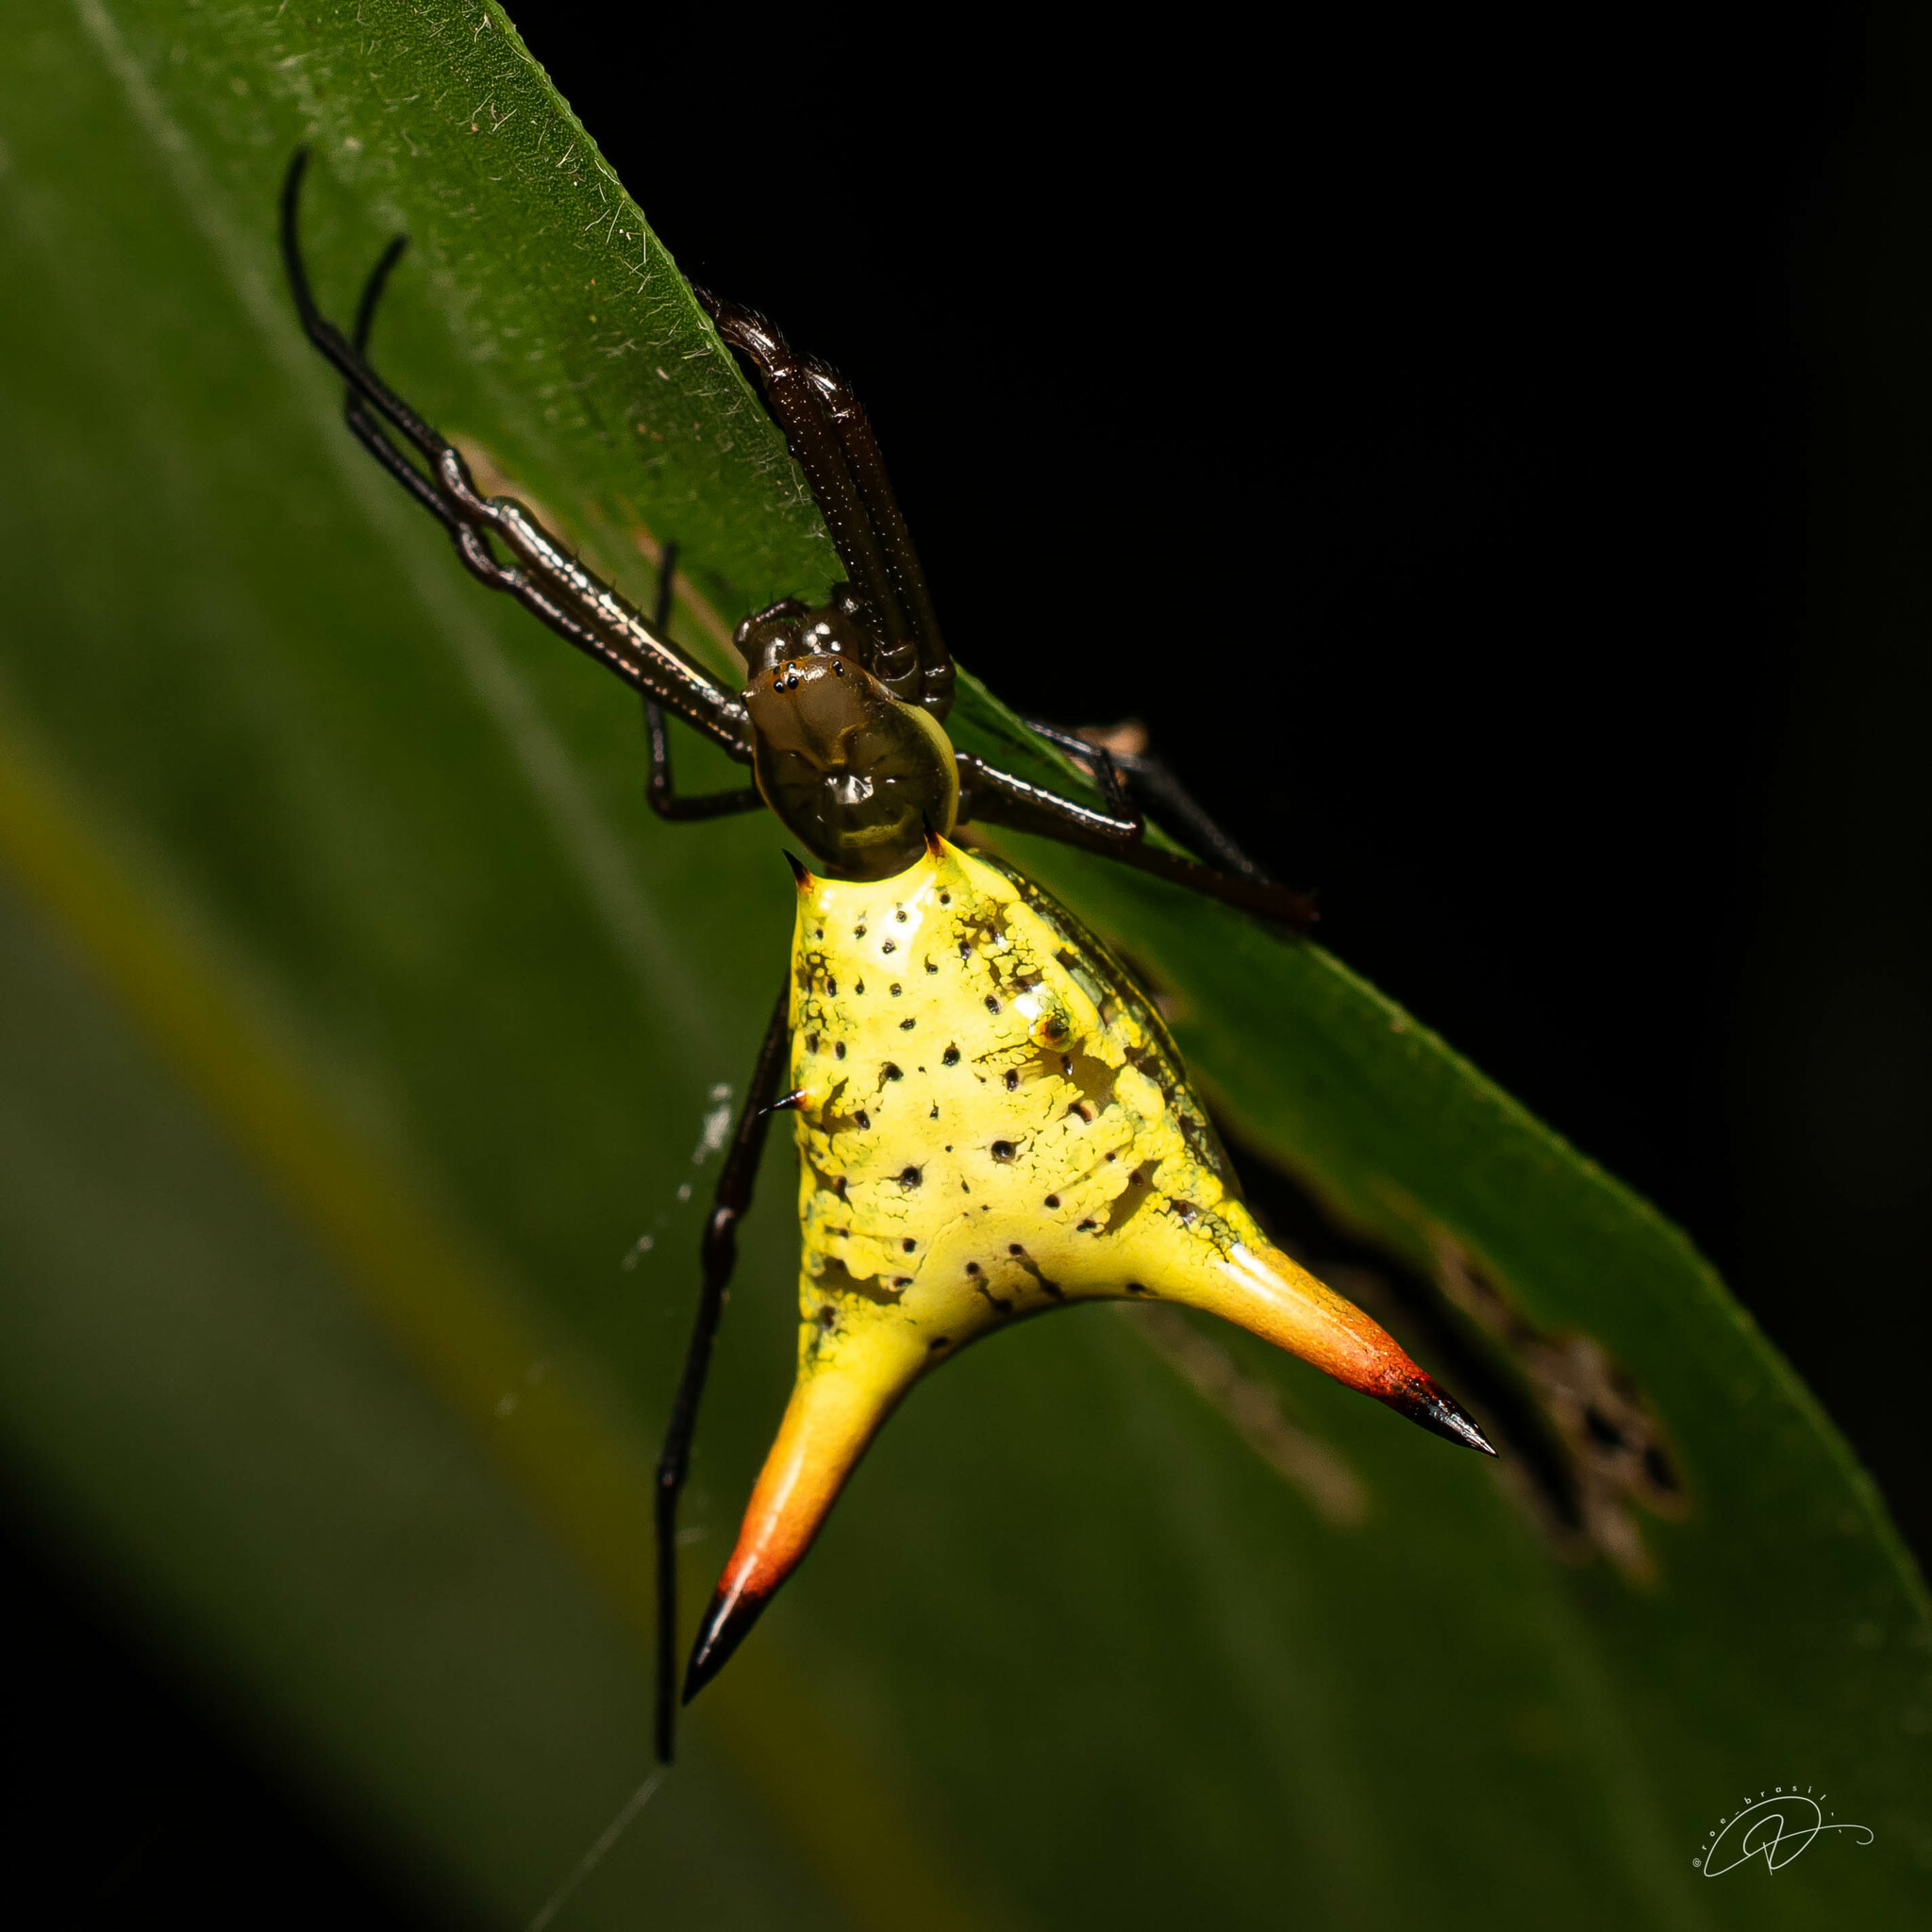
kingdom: Animalia
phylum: Arthropoda
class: Arachnida
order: Araneae
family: Araneidae
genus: Micrathena
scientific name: Micrathena crassispina
